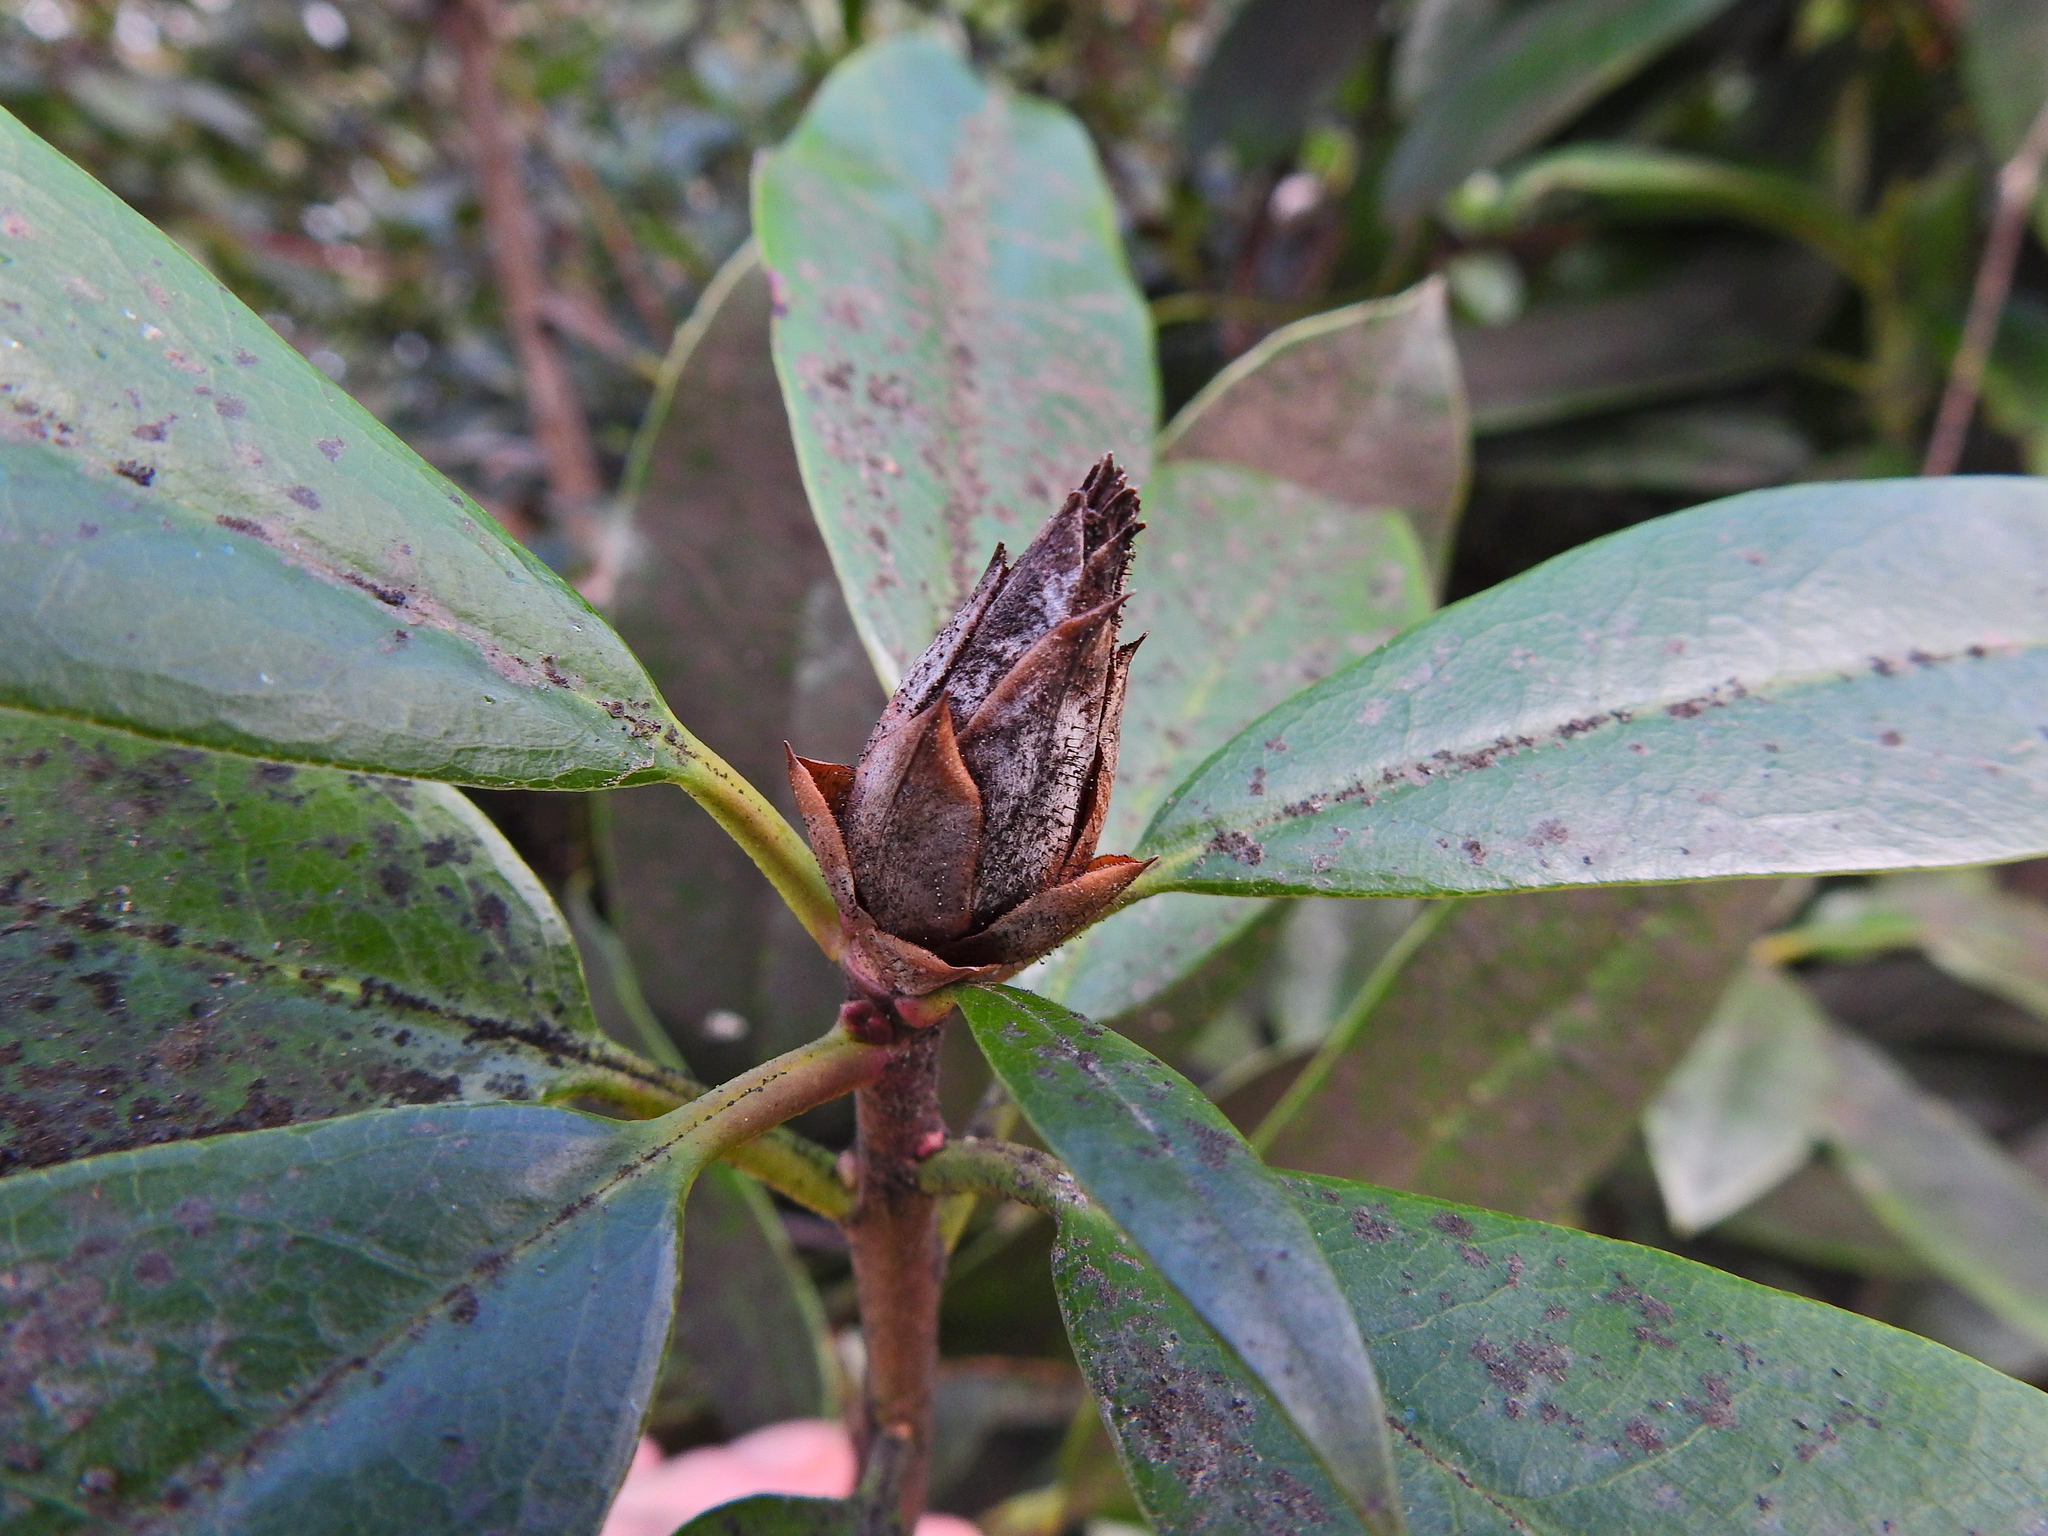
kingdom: Fungi
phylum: Ascomycota
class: Dothideomycetes
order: Pleosporales
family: Melanommataceae
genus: Seifertia
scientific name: Seifertia azaleae
